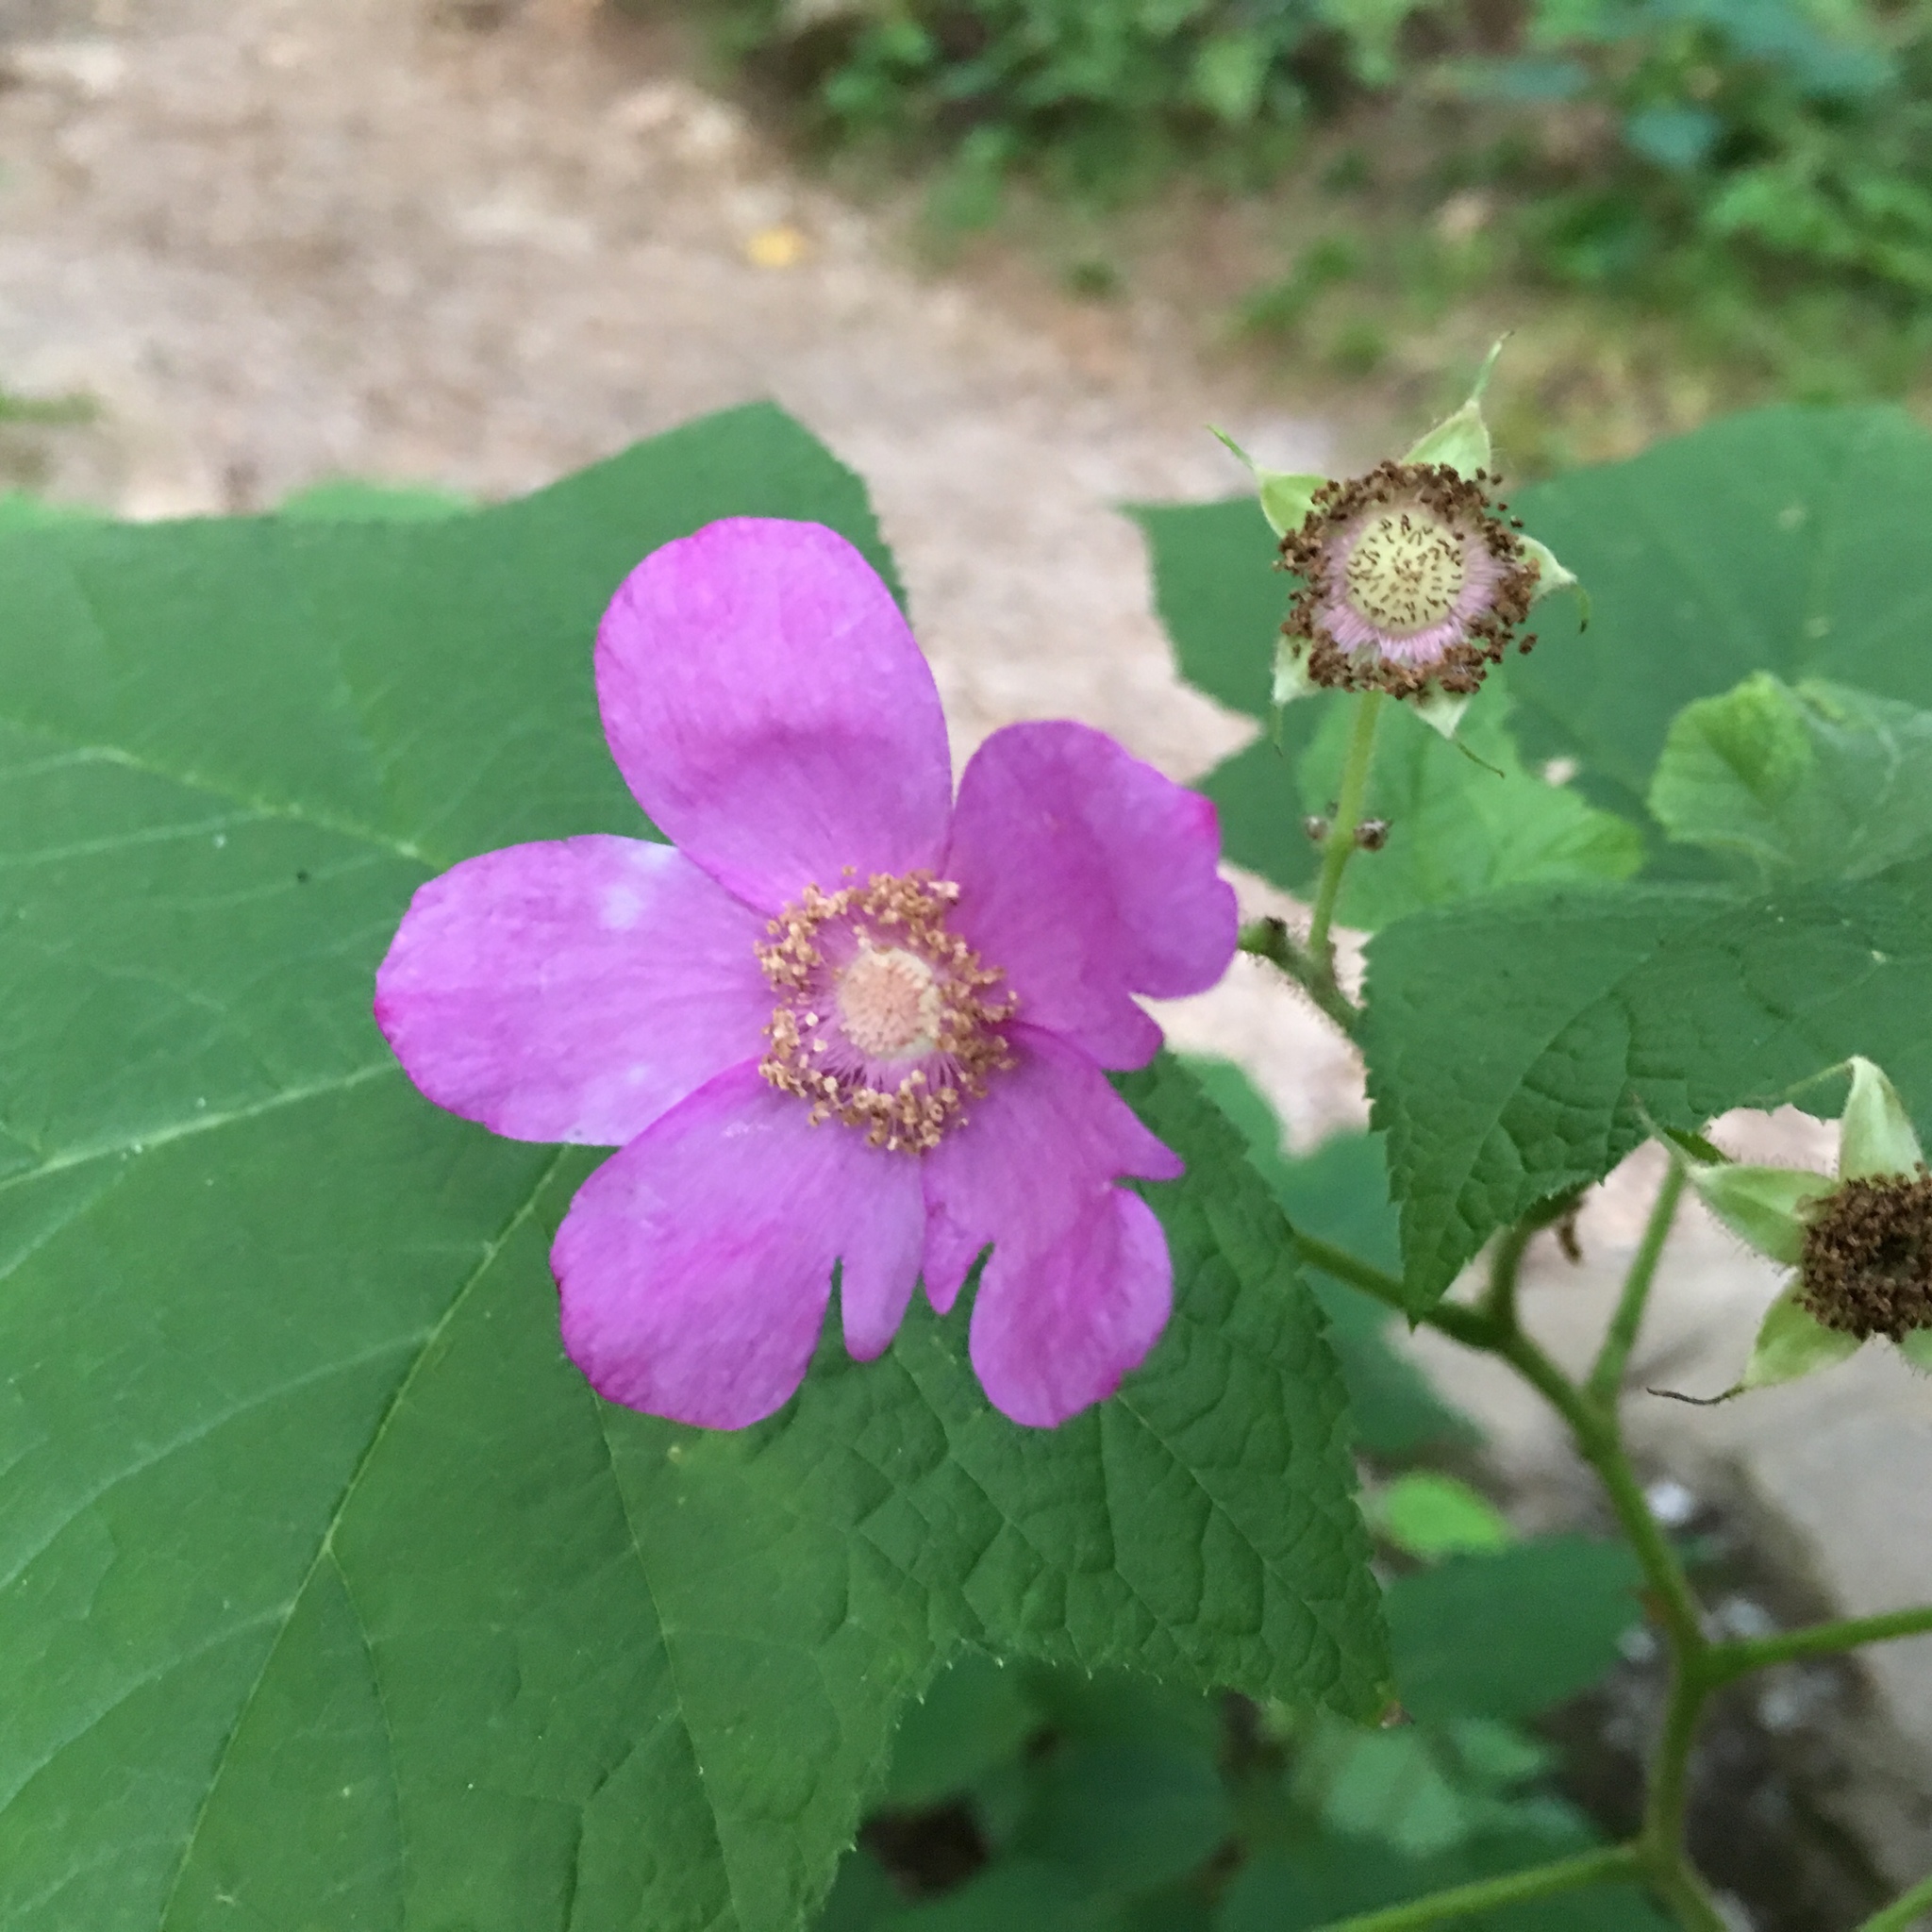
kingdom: Plantae
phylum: Tracheophyta
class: Magnoliopsida
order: Rosales
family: Rosaceae
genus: Rubus
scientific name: Rubus odoratus
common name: Purple-flowered raspberry
